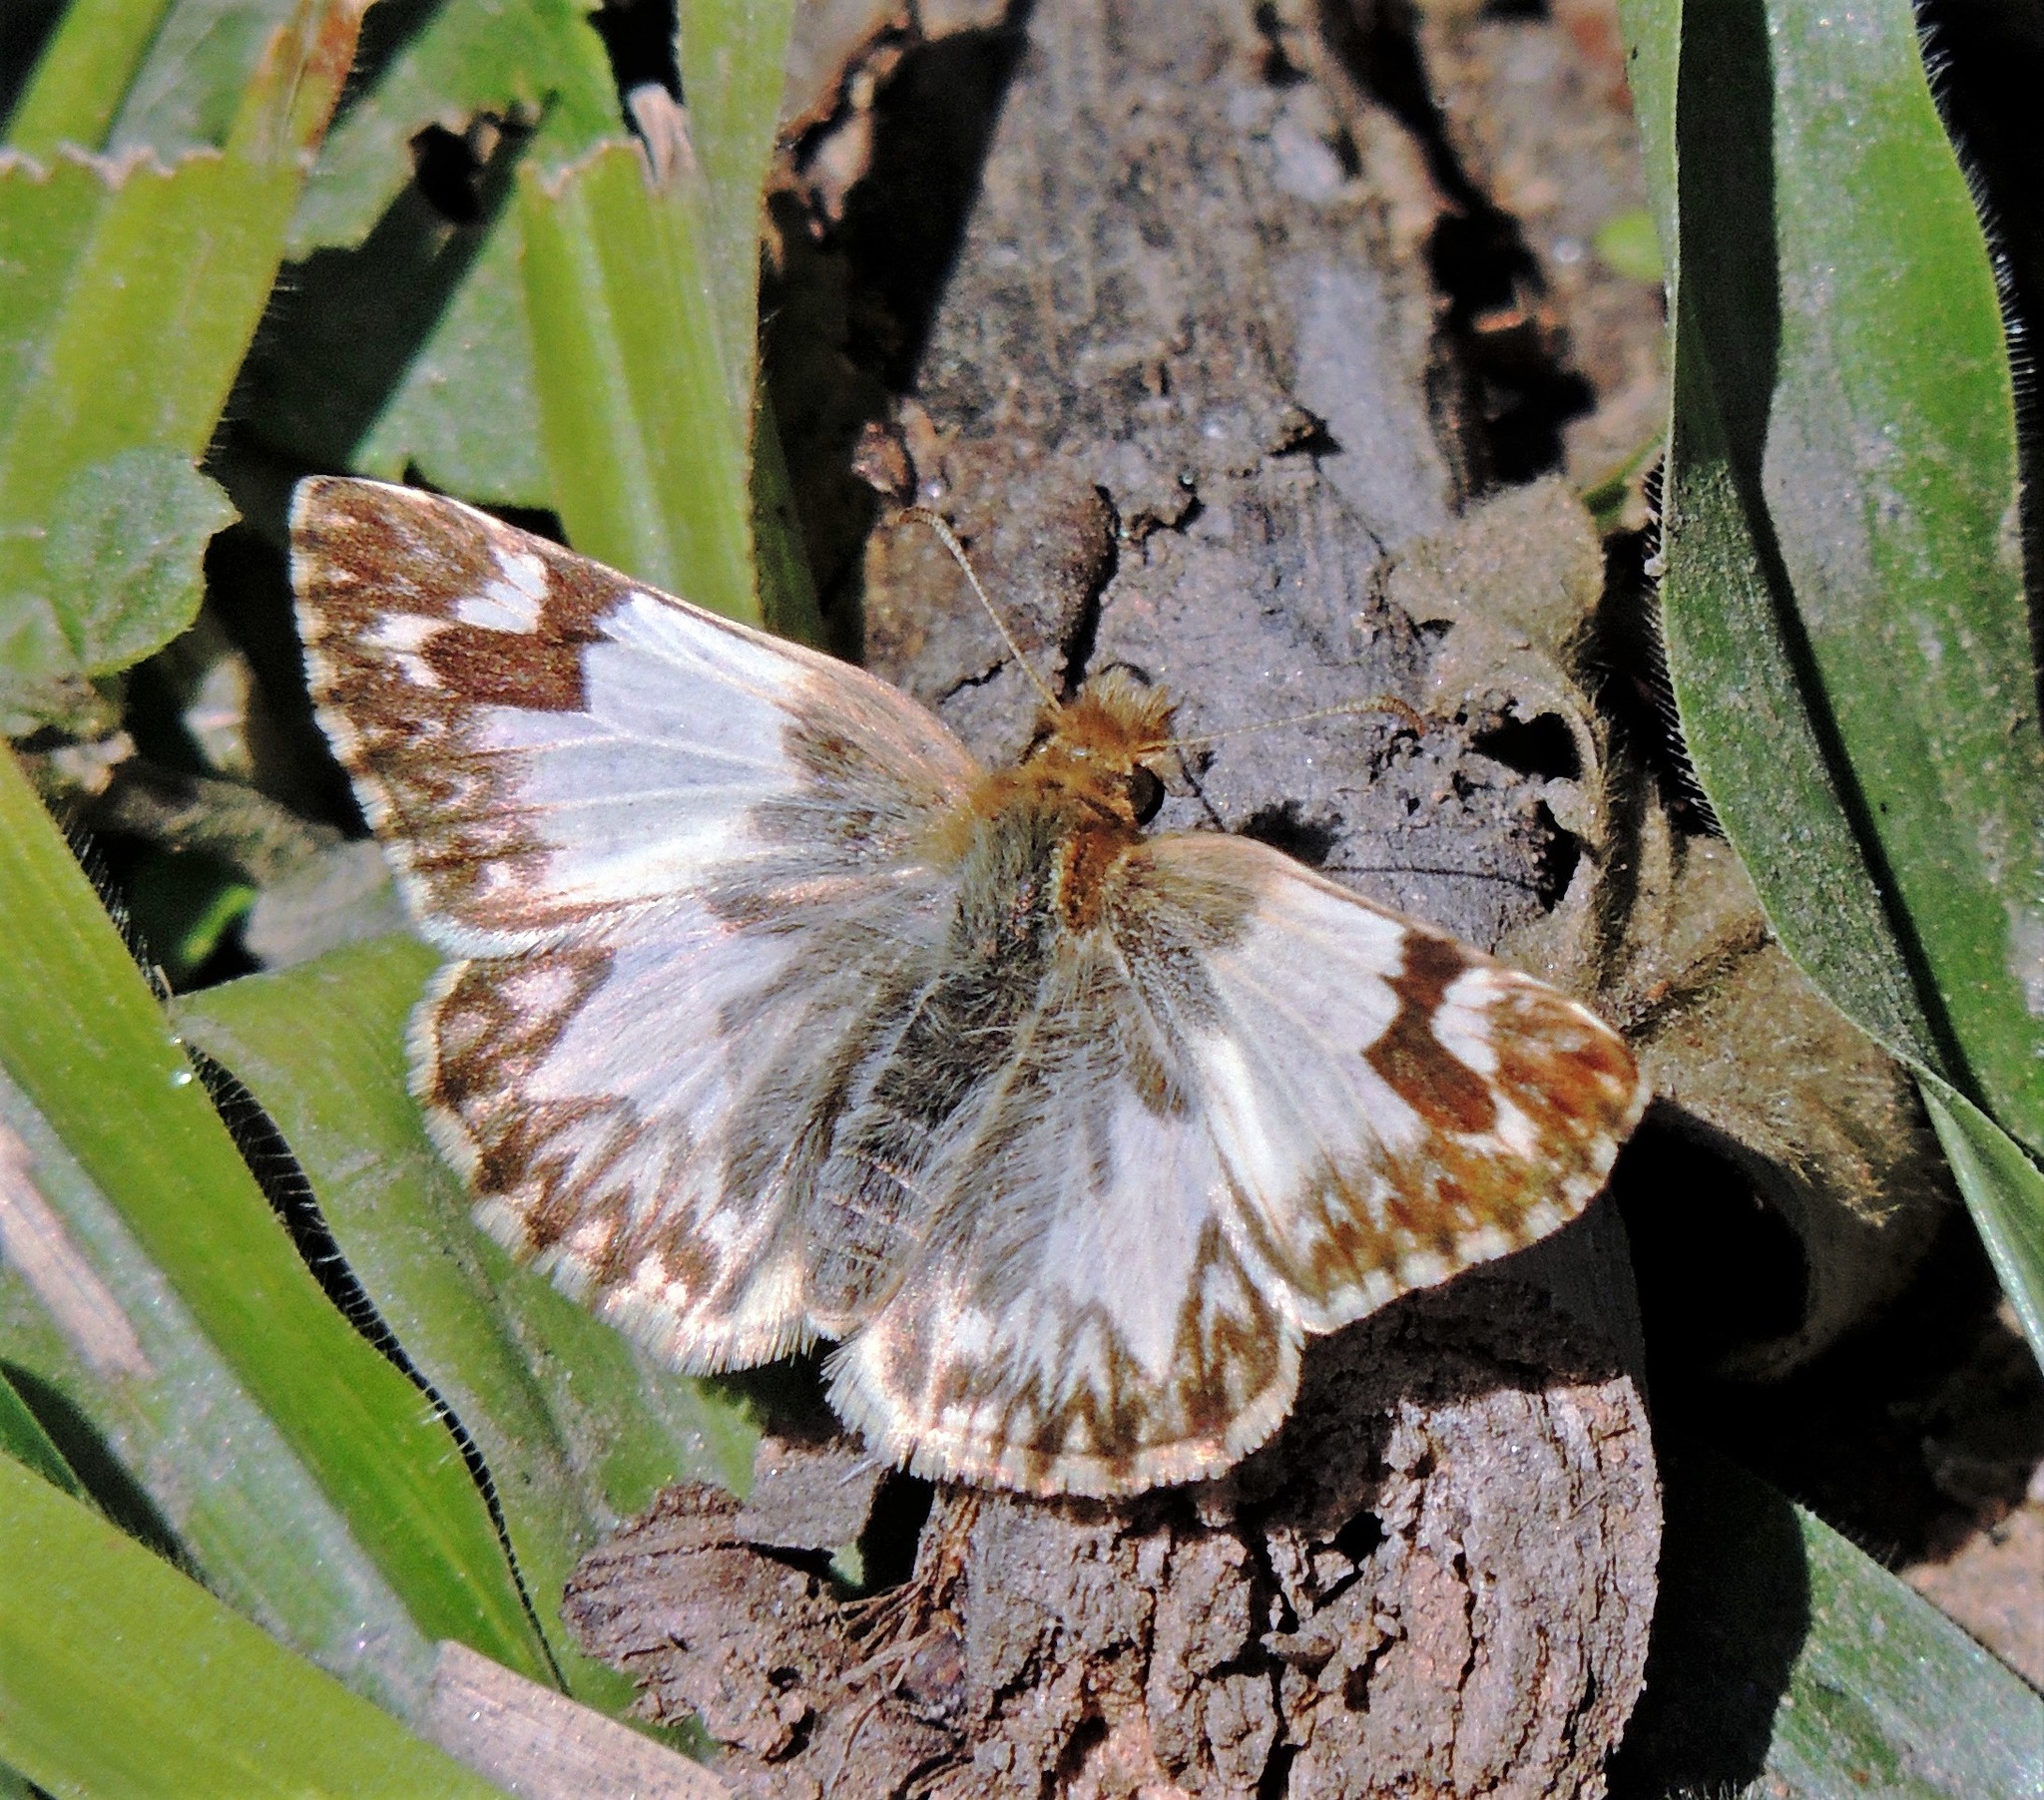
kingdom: Animalia
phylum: Arthropoda
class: Insecta
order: Lepidoptera
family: Hesperiidae
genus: Heliopetes
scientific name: Heliopetes omrina
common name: Stained white-skipper
